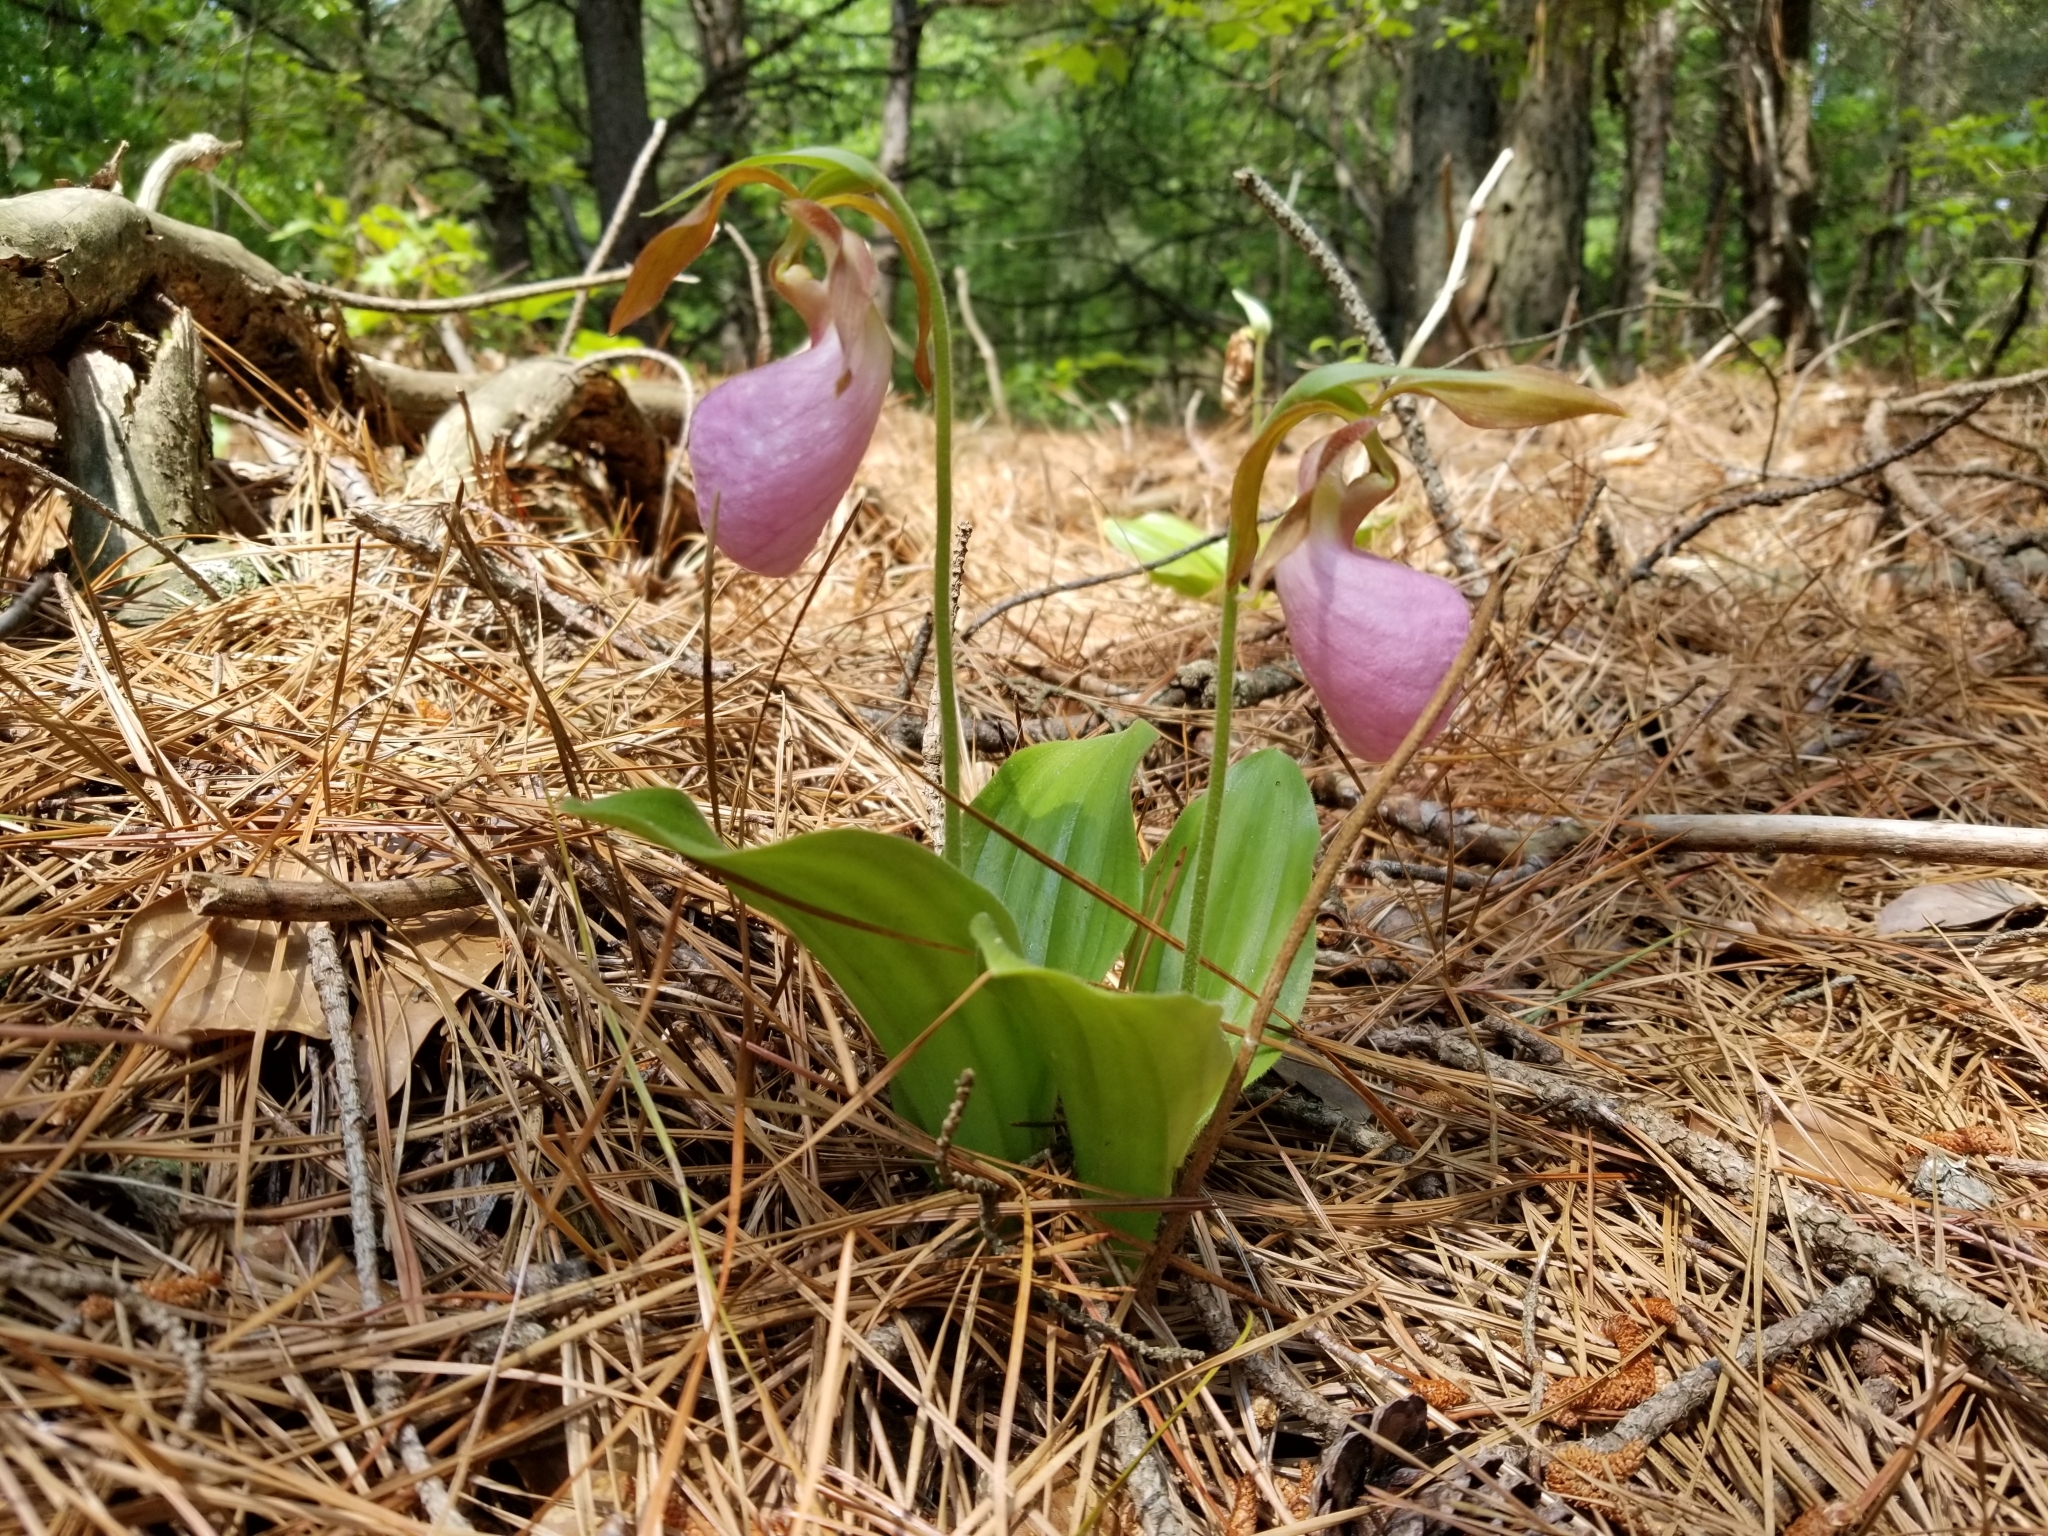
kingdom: Plantae
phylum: Tracheophyta
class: Liliopsida
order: Asparagales
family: Orchidaceae
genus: Cypripedium
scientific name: Cypripedium acaule
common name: Pink lady's-slipper
